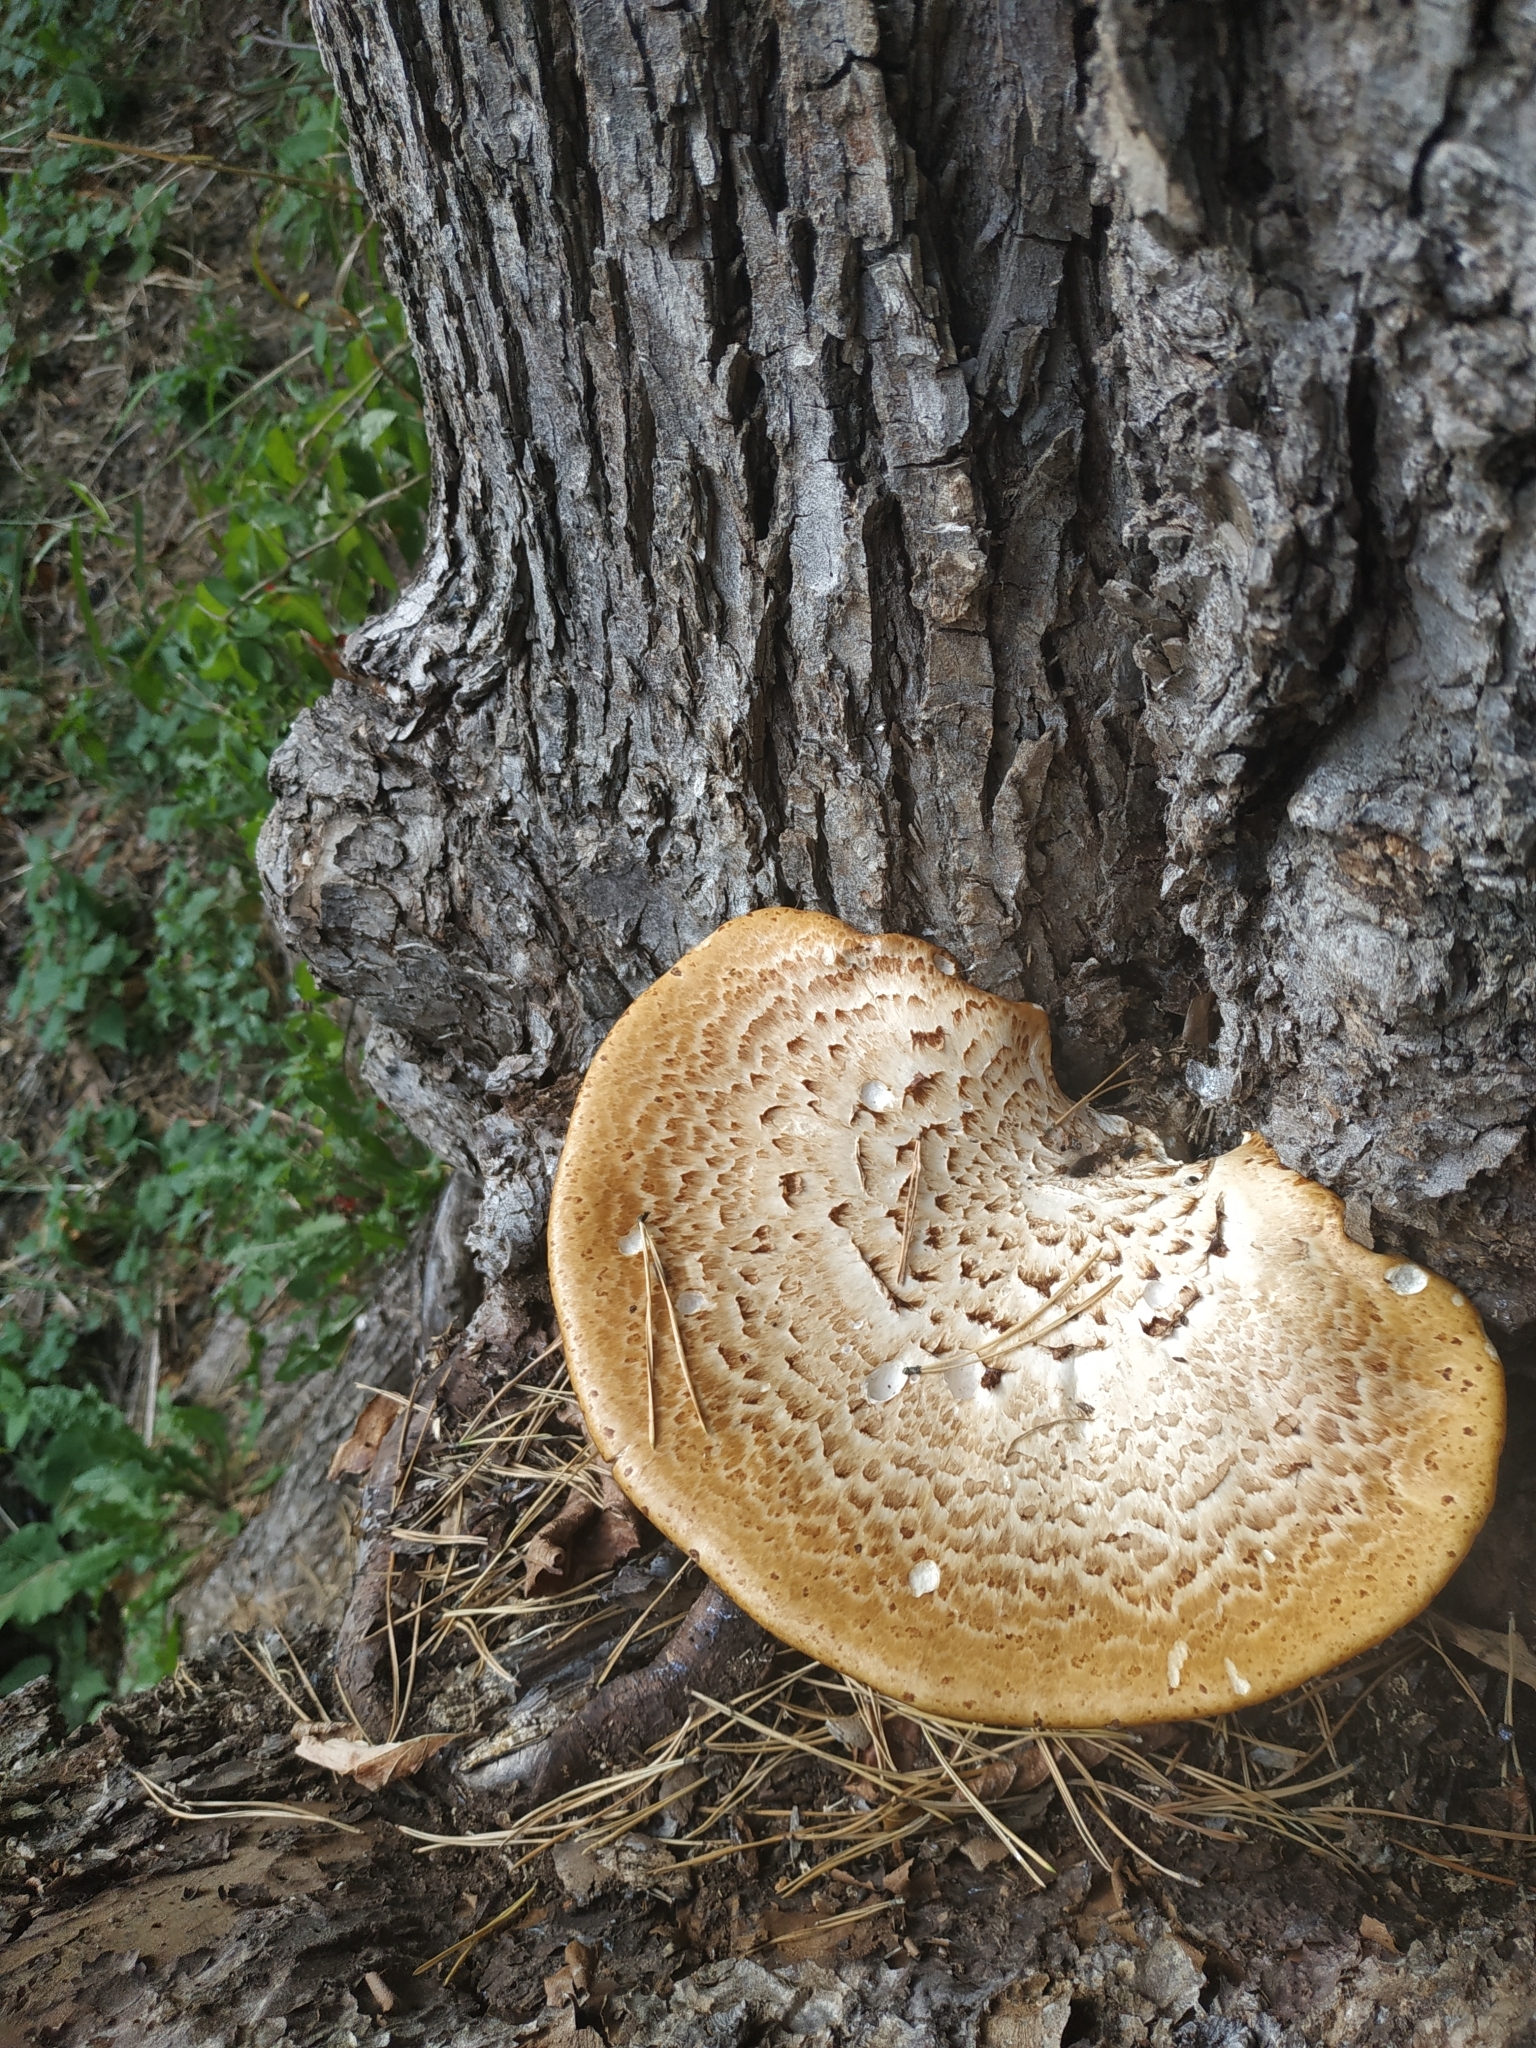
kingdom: Fungi
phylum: Basidiomycota
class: Agaricomycetes
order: Polyporales
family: Polyporaceae
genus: Cerioporus
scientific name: Cerioporus squamosus
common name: Dryad's saddle
